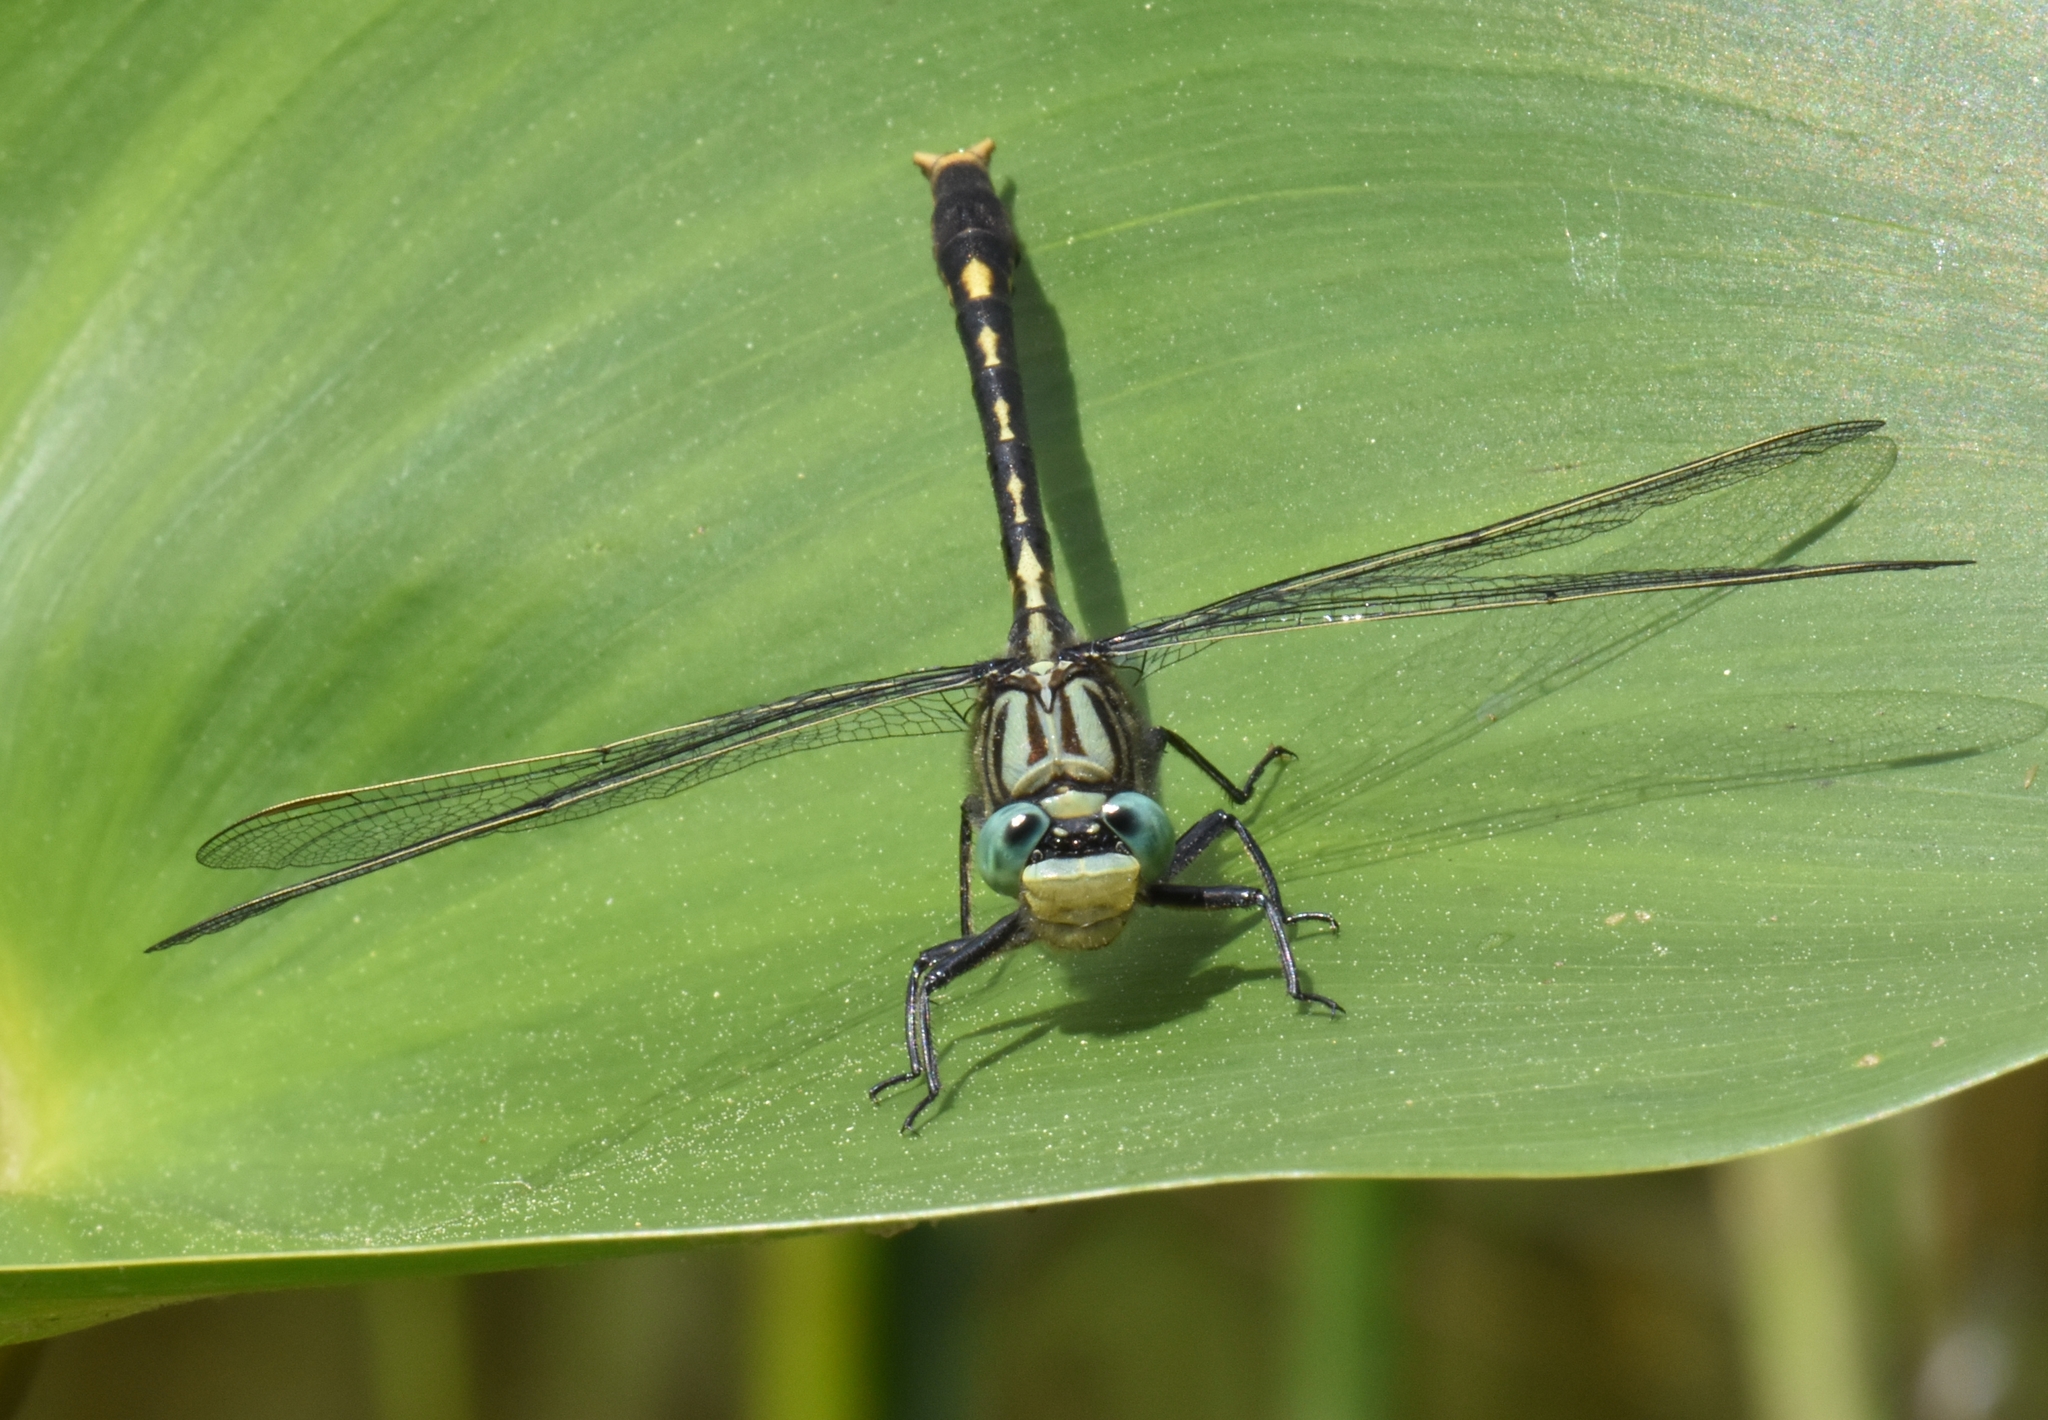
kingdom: Animalia
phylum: Arthropoda
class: Insecta
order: Odonata
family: Gomphidae
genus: Arigomphus
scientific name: Arigomphus villosipes
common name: Unicorn clubtail
